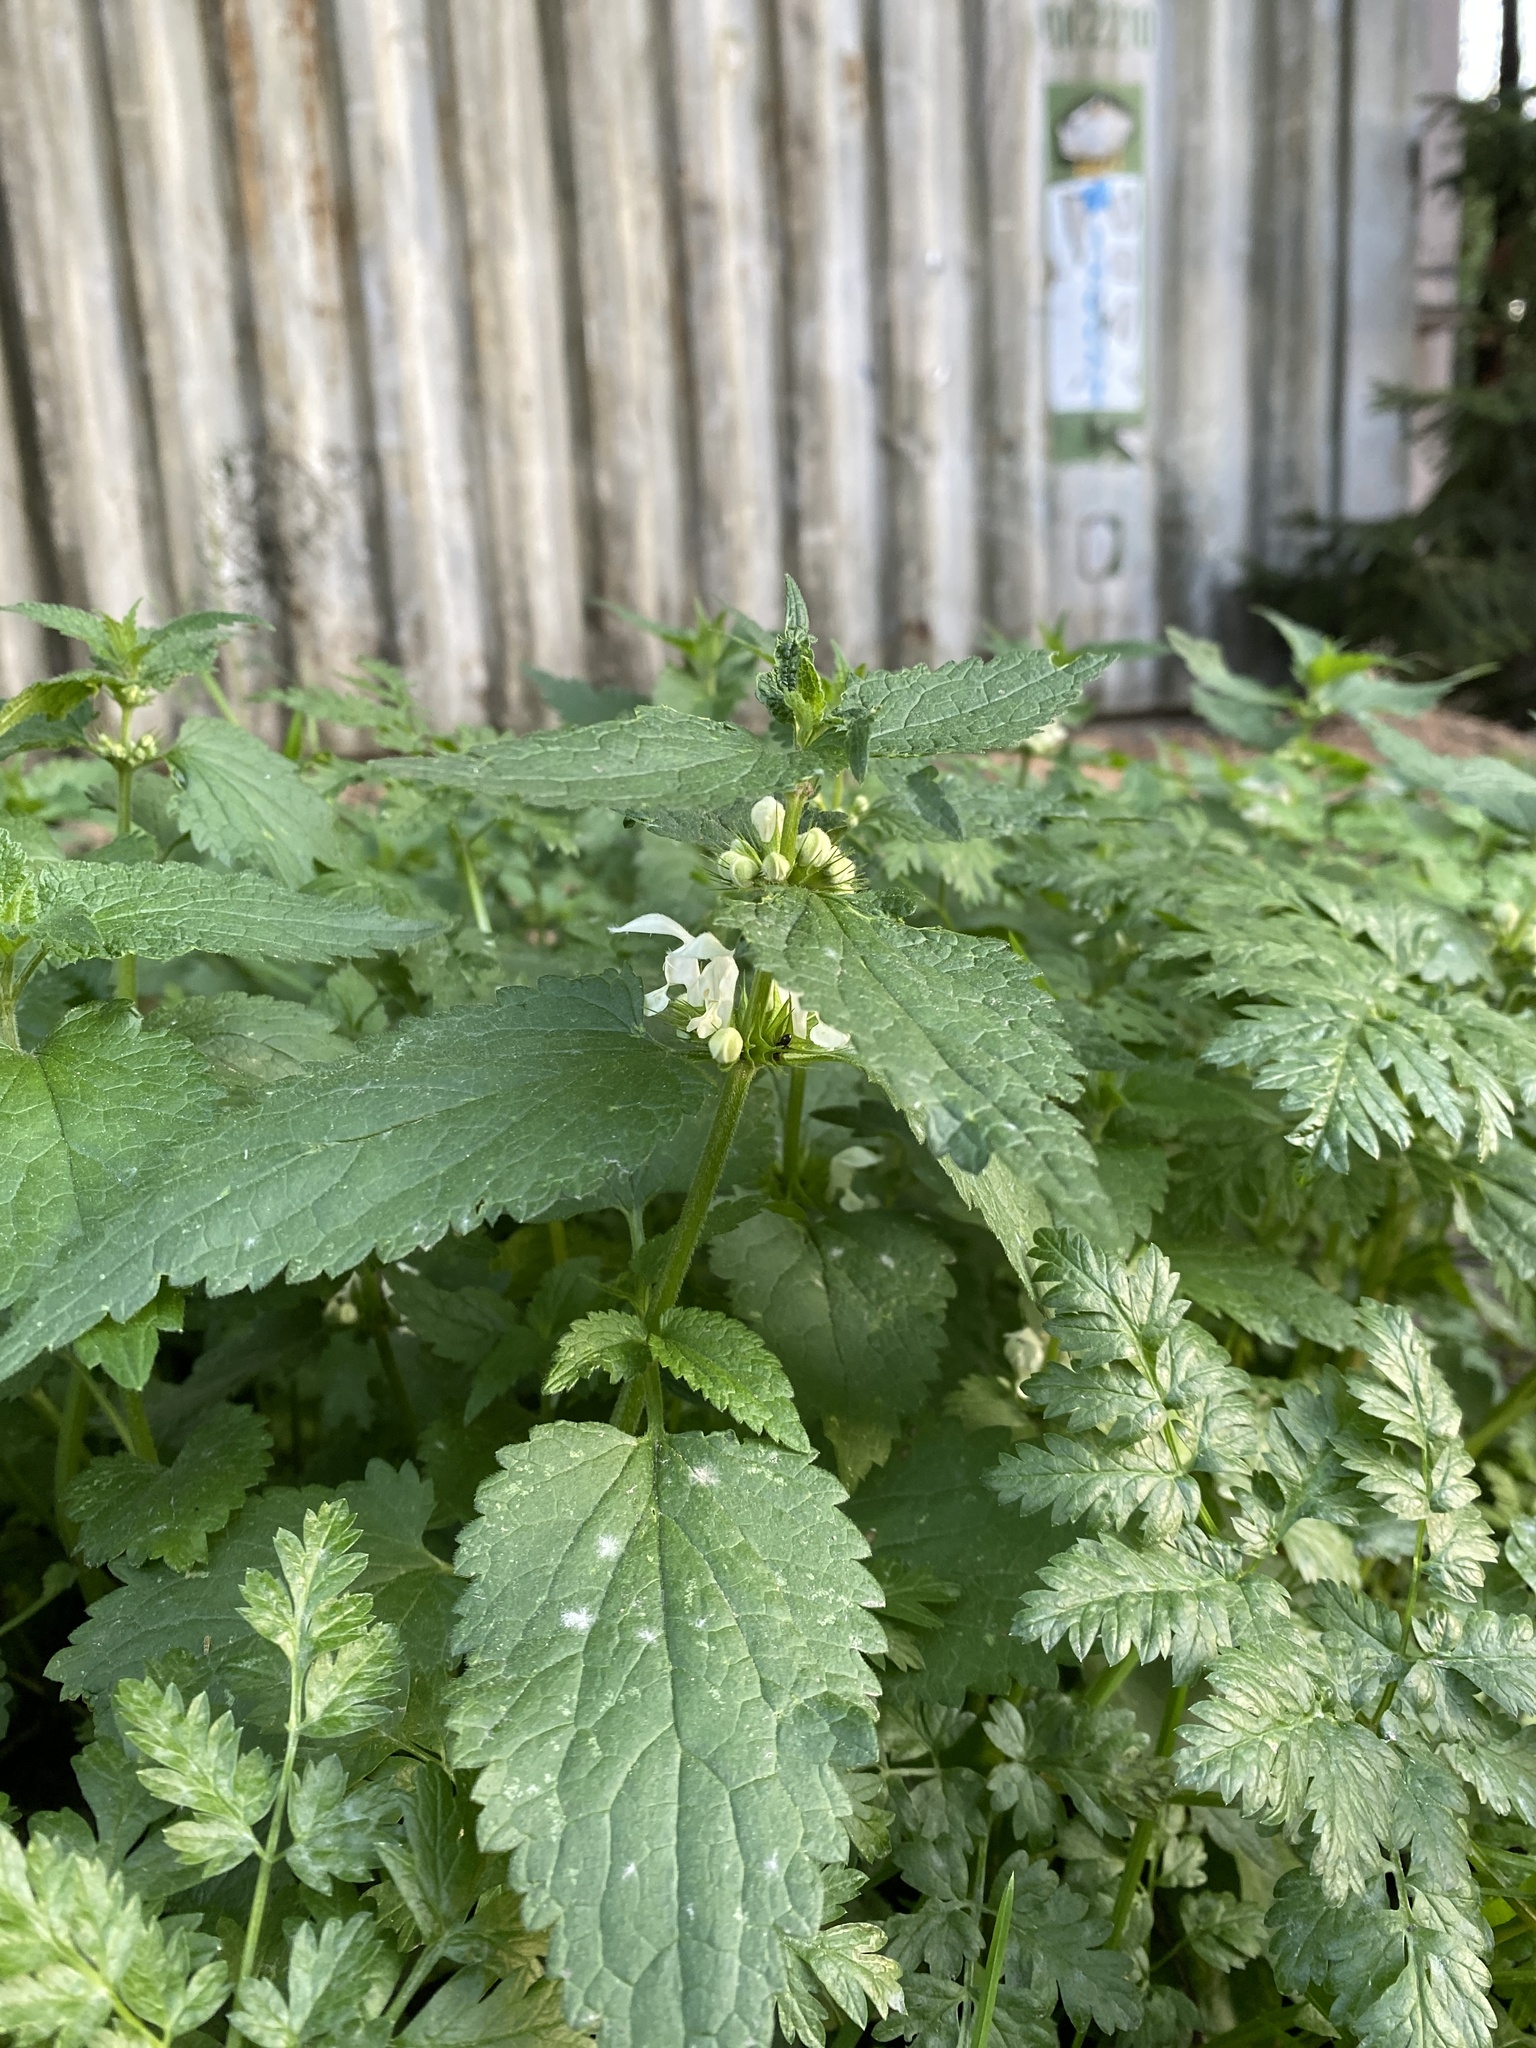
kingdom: Plantae
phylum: Tracheophyta
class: Magnoliopsida
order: Lamiales
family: Lamiaceae
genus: Lamium
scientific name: Lamium album
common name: White dead-nettle
